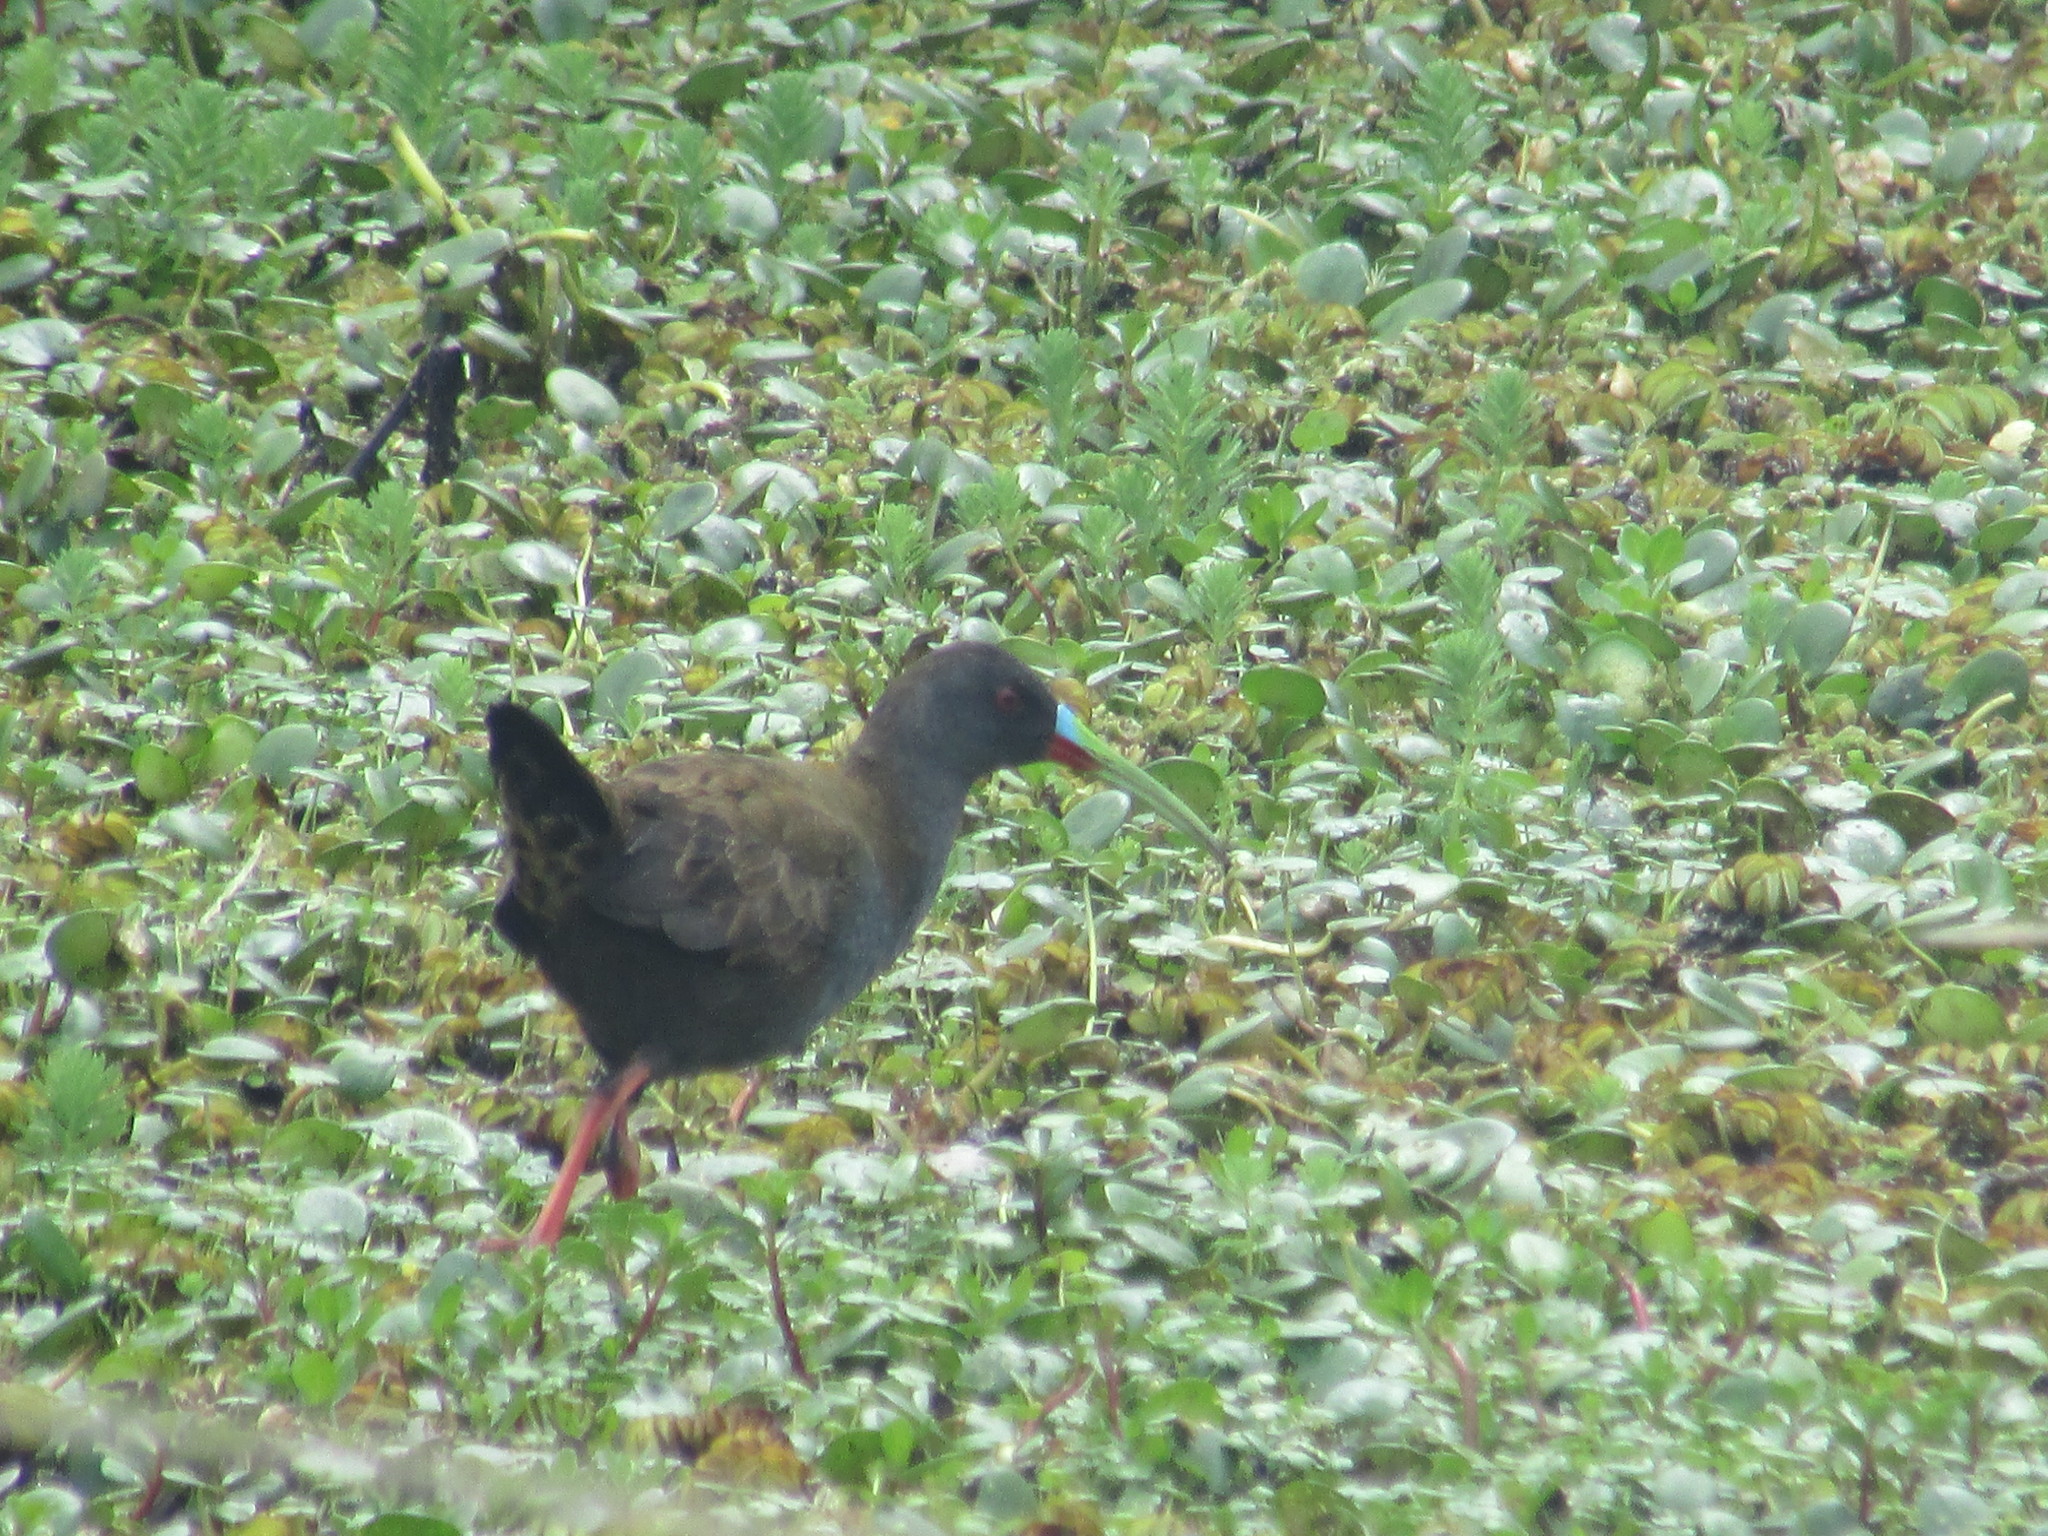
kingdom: Animalia
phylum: Chordata
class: Aves
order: Gruiformes
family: Rallidae
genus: Pardirallus
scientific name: Pardirallus sanguinolentus
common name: Plumbeous rail
